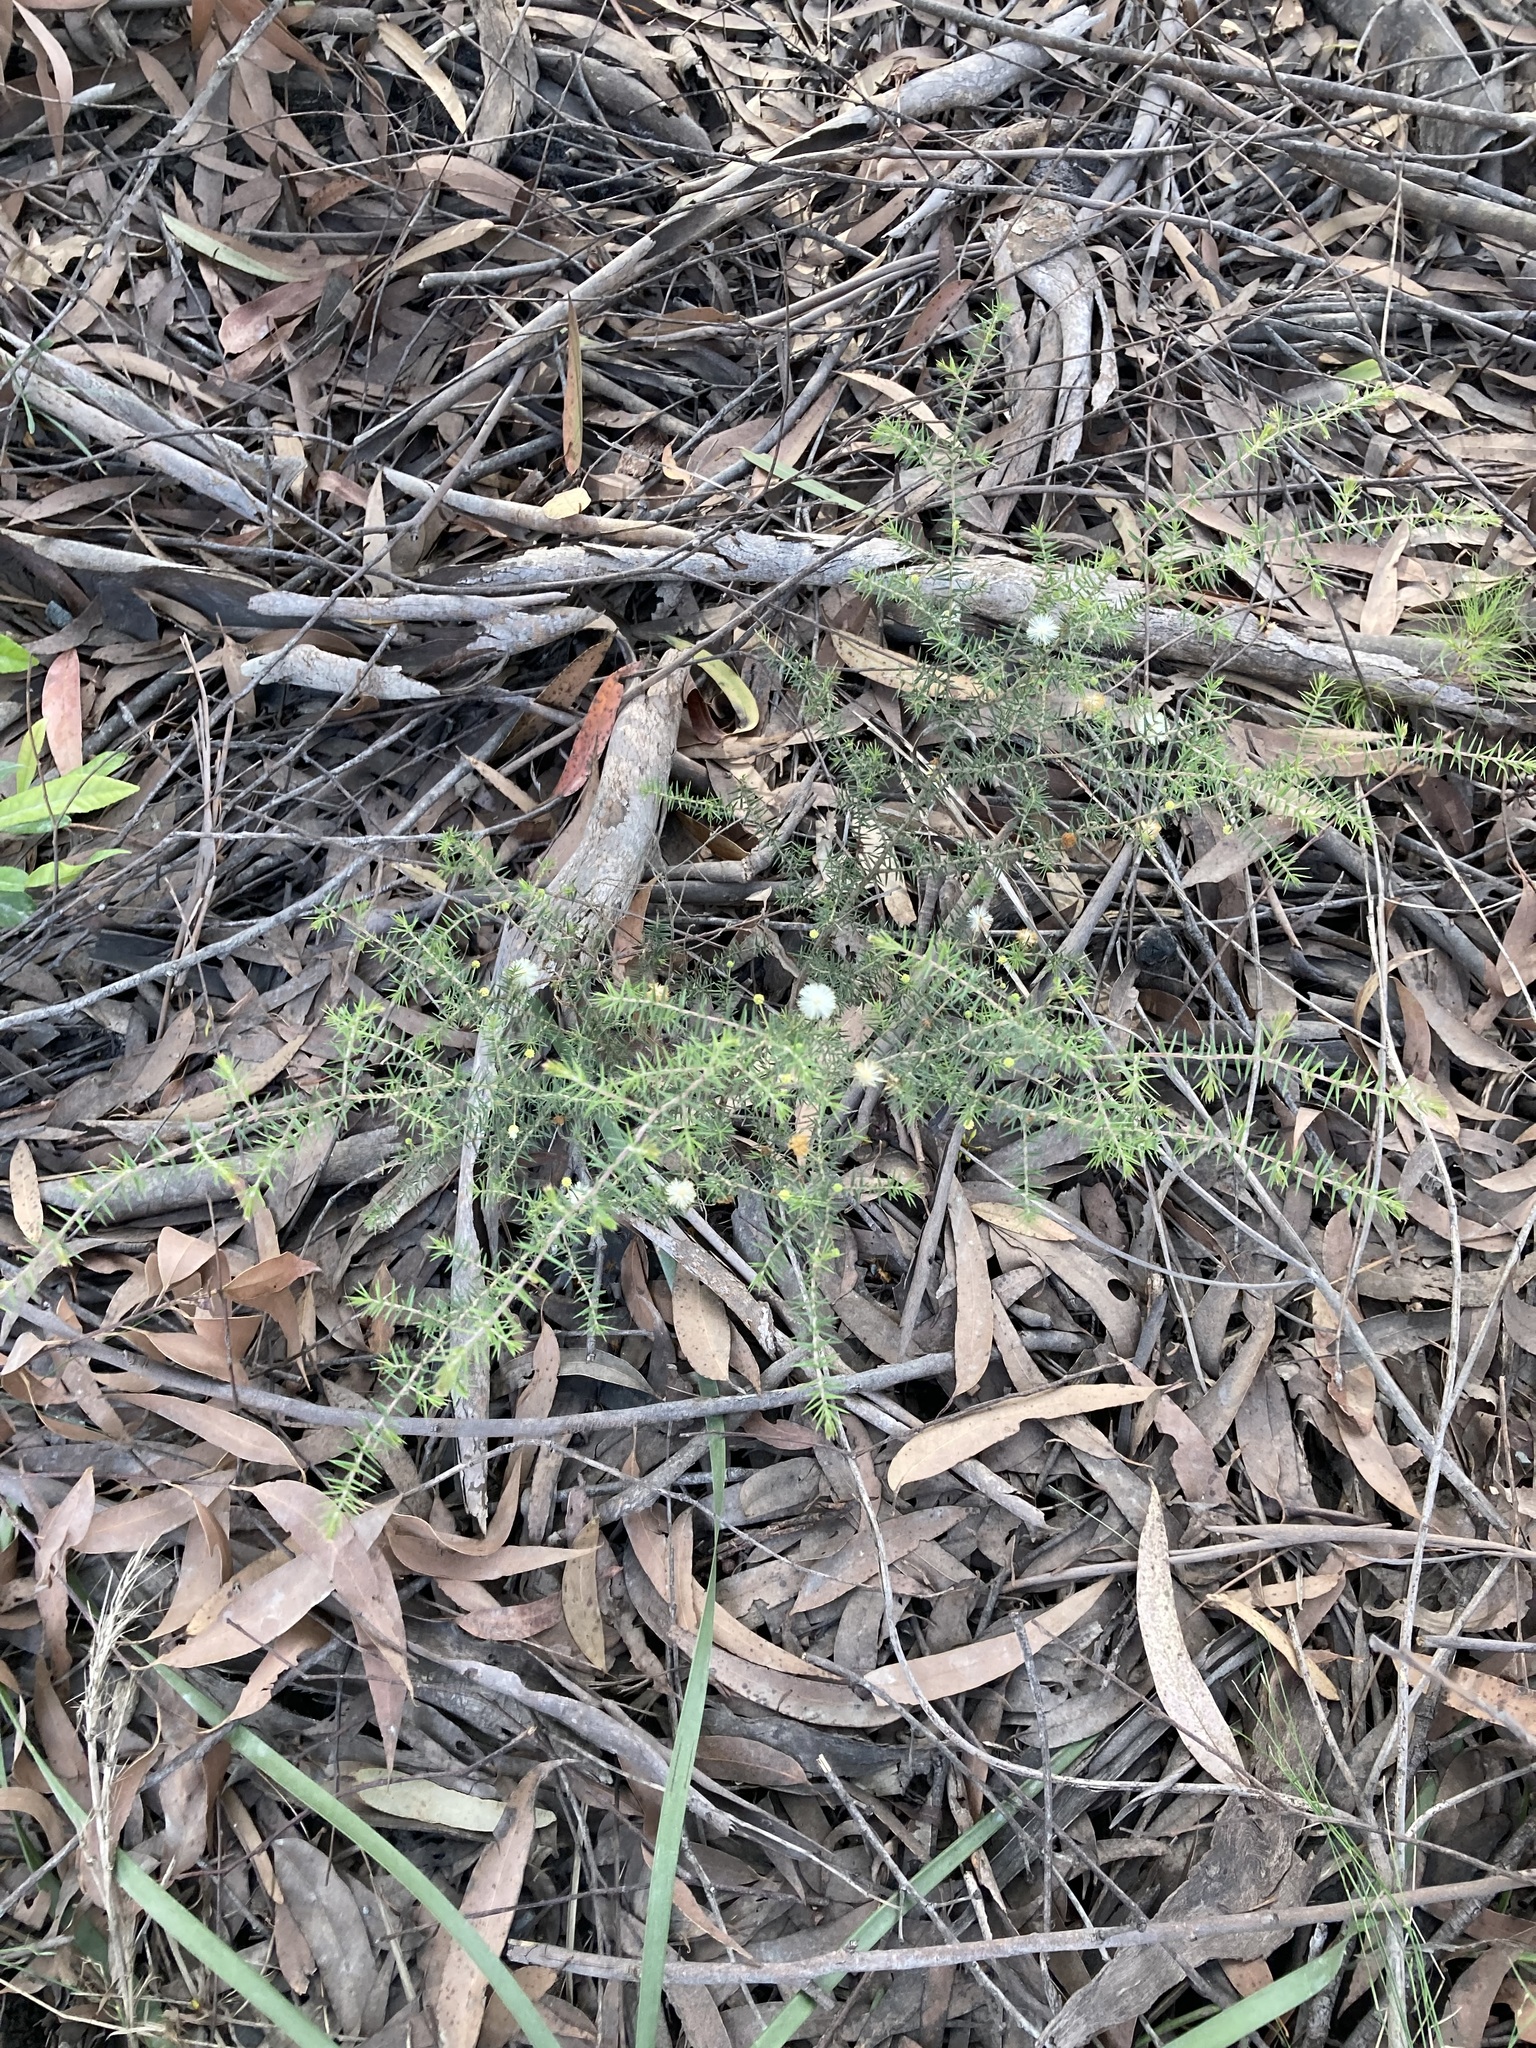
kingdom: Plantae
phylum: Tracheophyta
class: Magnoliopsida
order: Fabales
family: Fabaceae
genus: Acacia
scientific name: Acacia ulicifolia
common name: Juniper wattle
